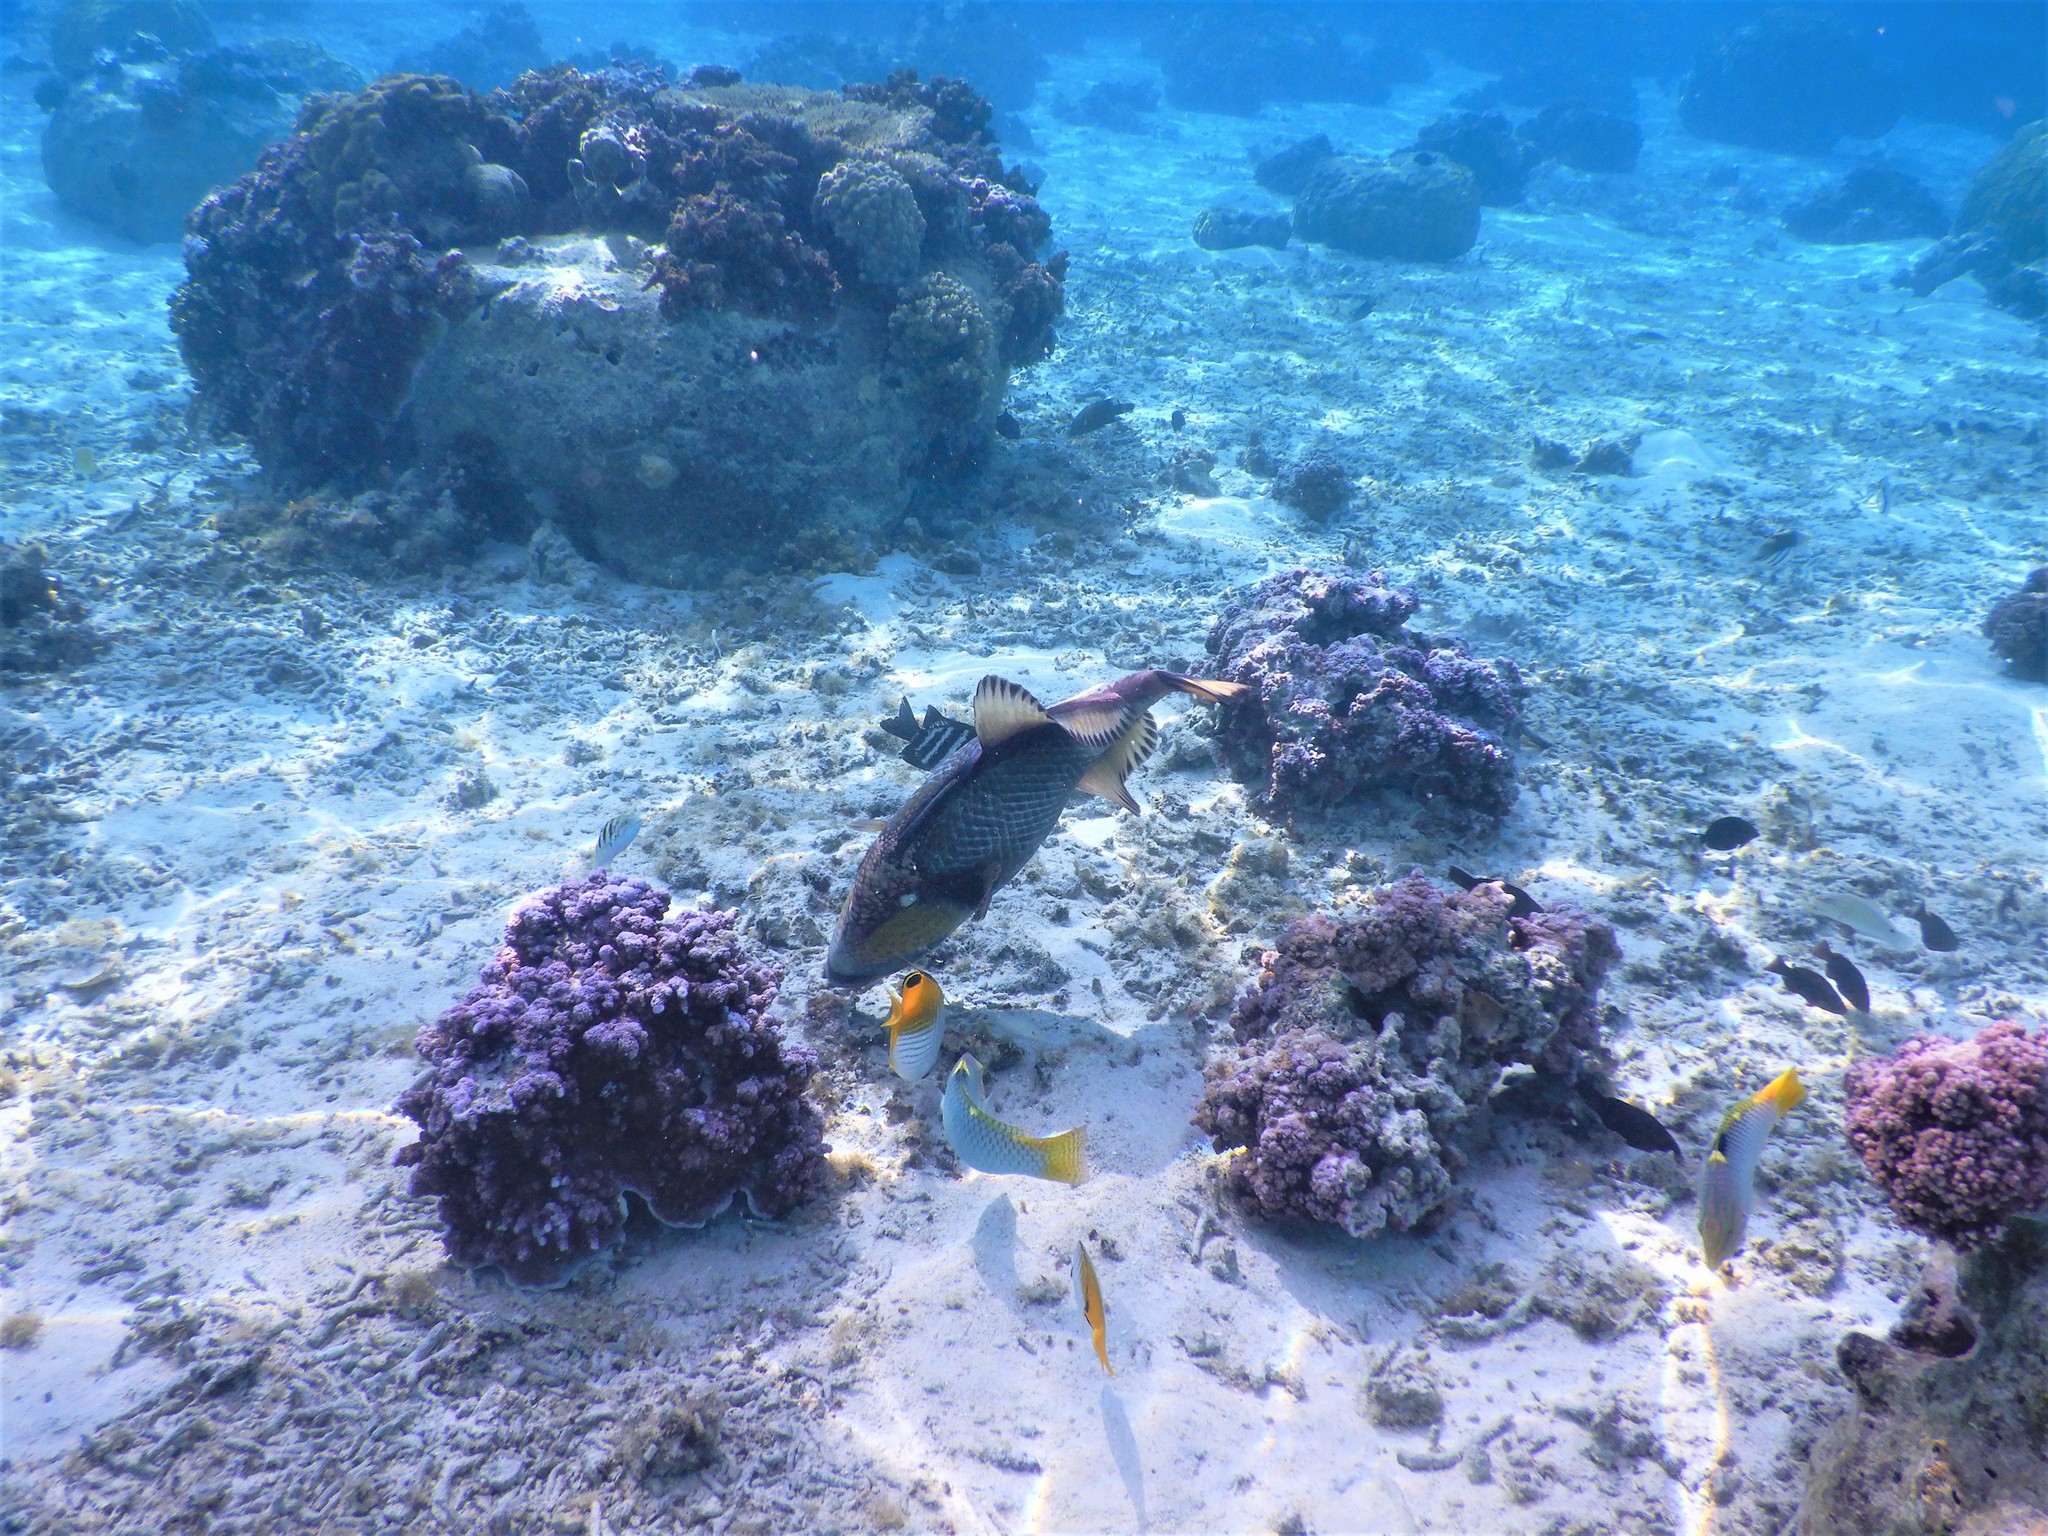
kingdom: Animalia
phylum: Chordata
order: Tetraodontiformes
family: Balistidae
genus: Balistoides
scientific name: Balistoides viridescens
